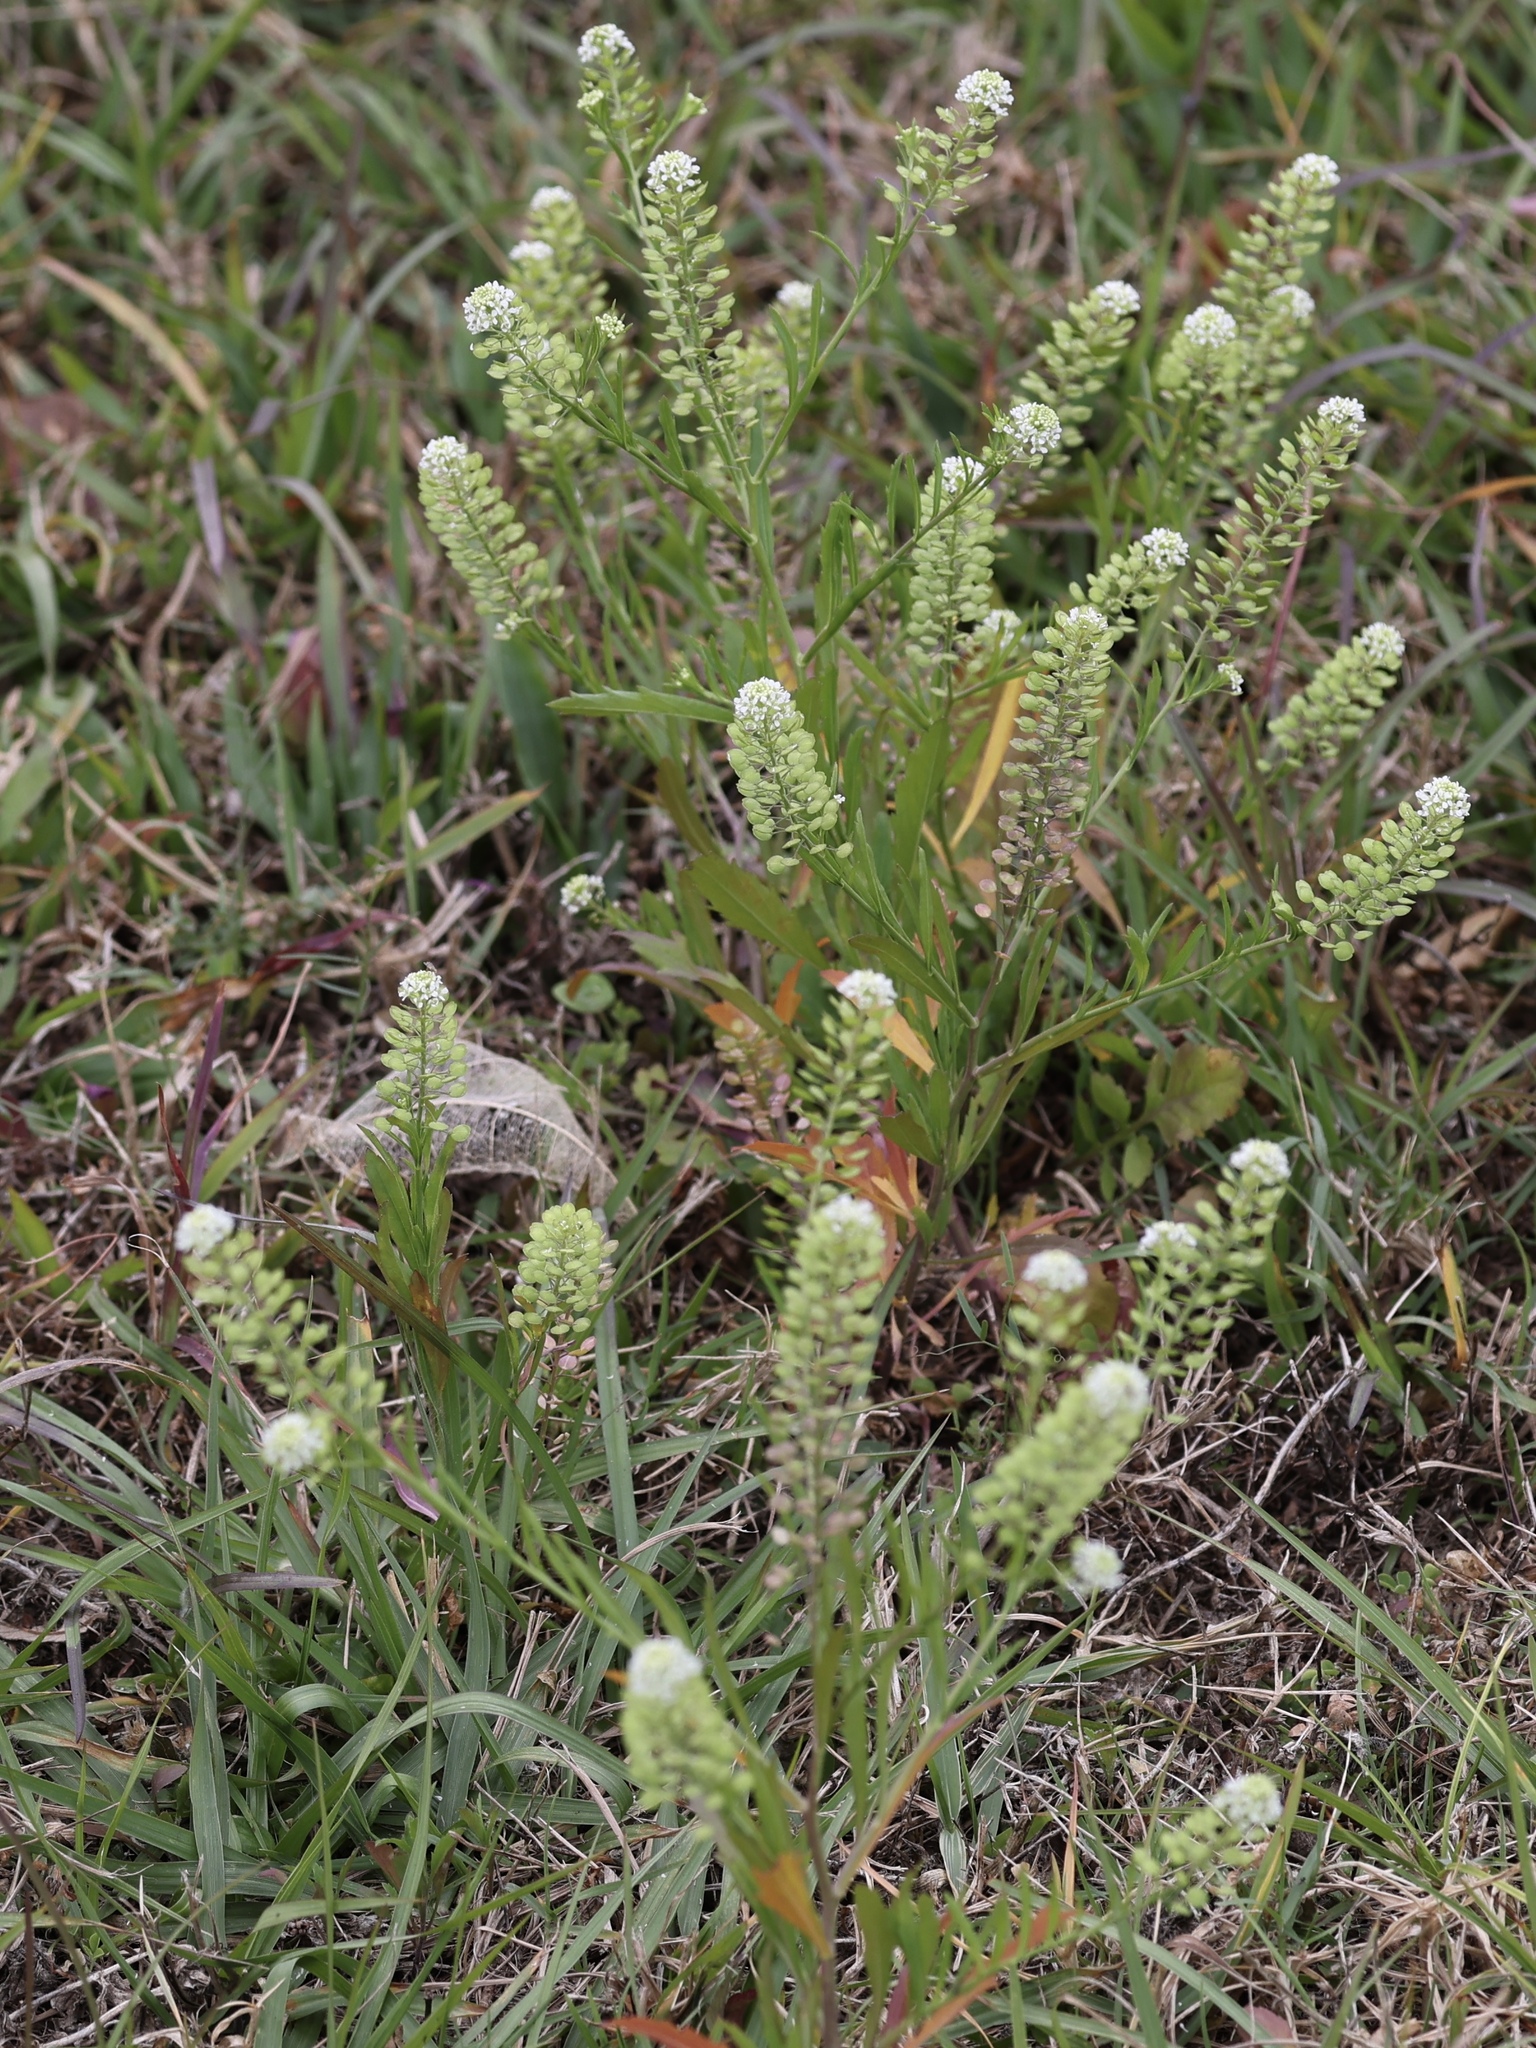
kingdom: Plantae
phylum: Tracheophyta
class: Magnoliopsida
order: Brassicales
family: Brassicaceae
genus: Lepidium
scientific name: Lepidium virginicum
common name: Least pepperwort
